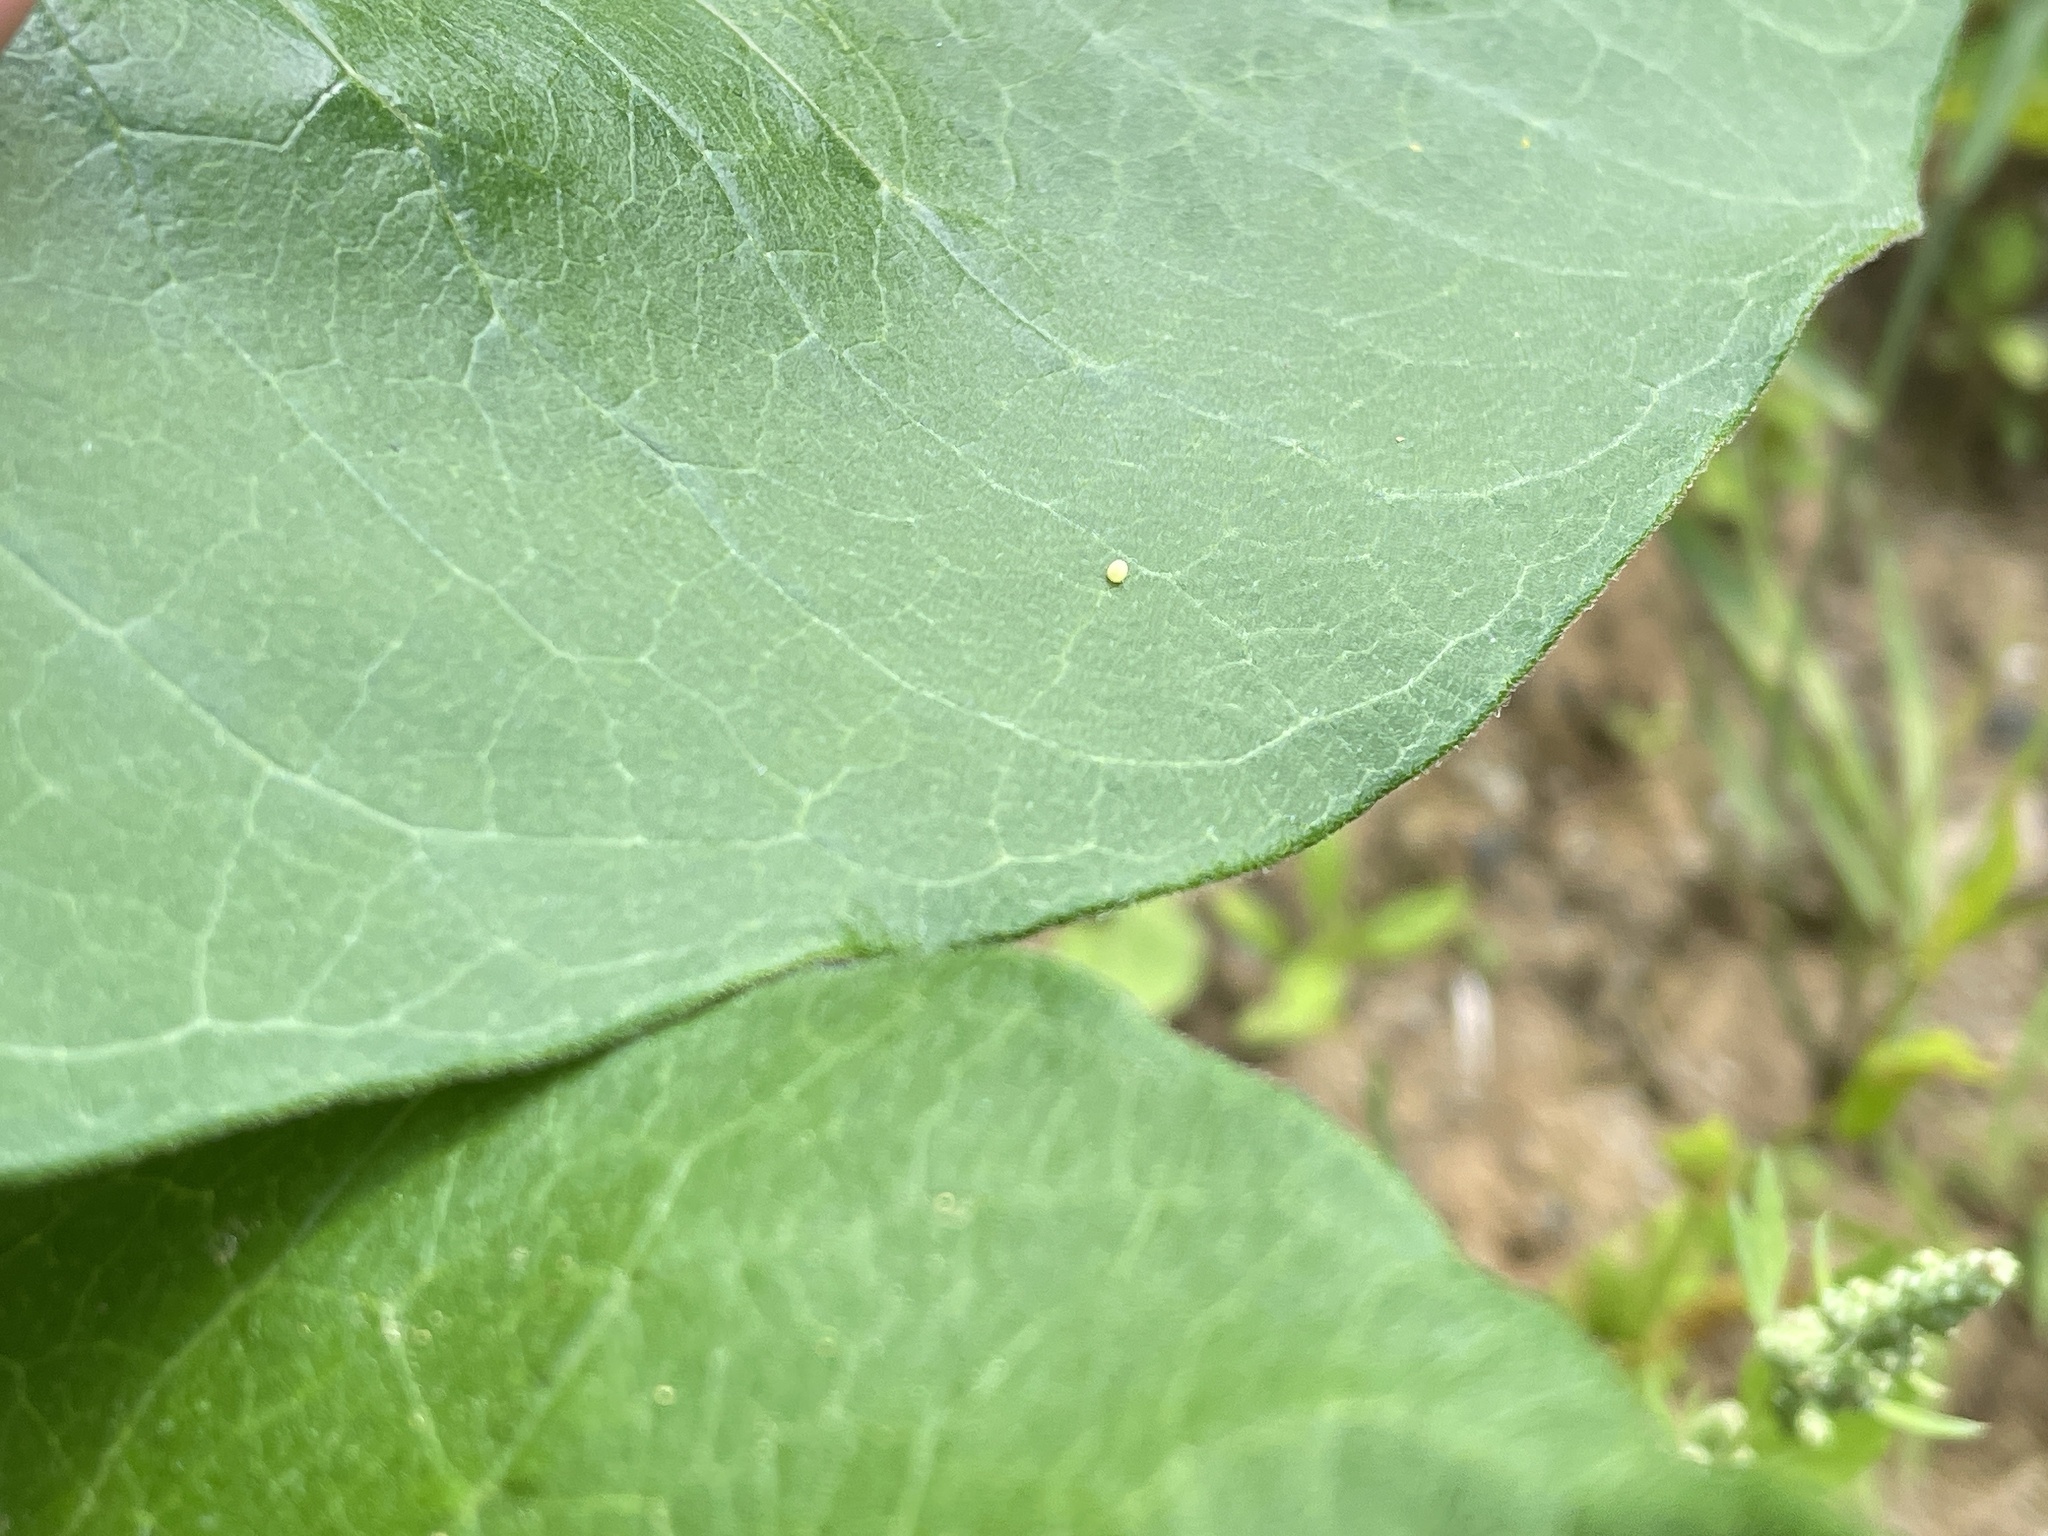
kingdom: Animalia
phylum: Arthropoda
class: Insecta
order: Lepidoptera
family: Nymphalidae
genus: Danaus
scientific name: Danaus plexippus
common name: Monarch
